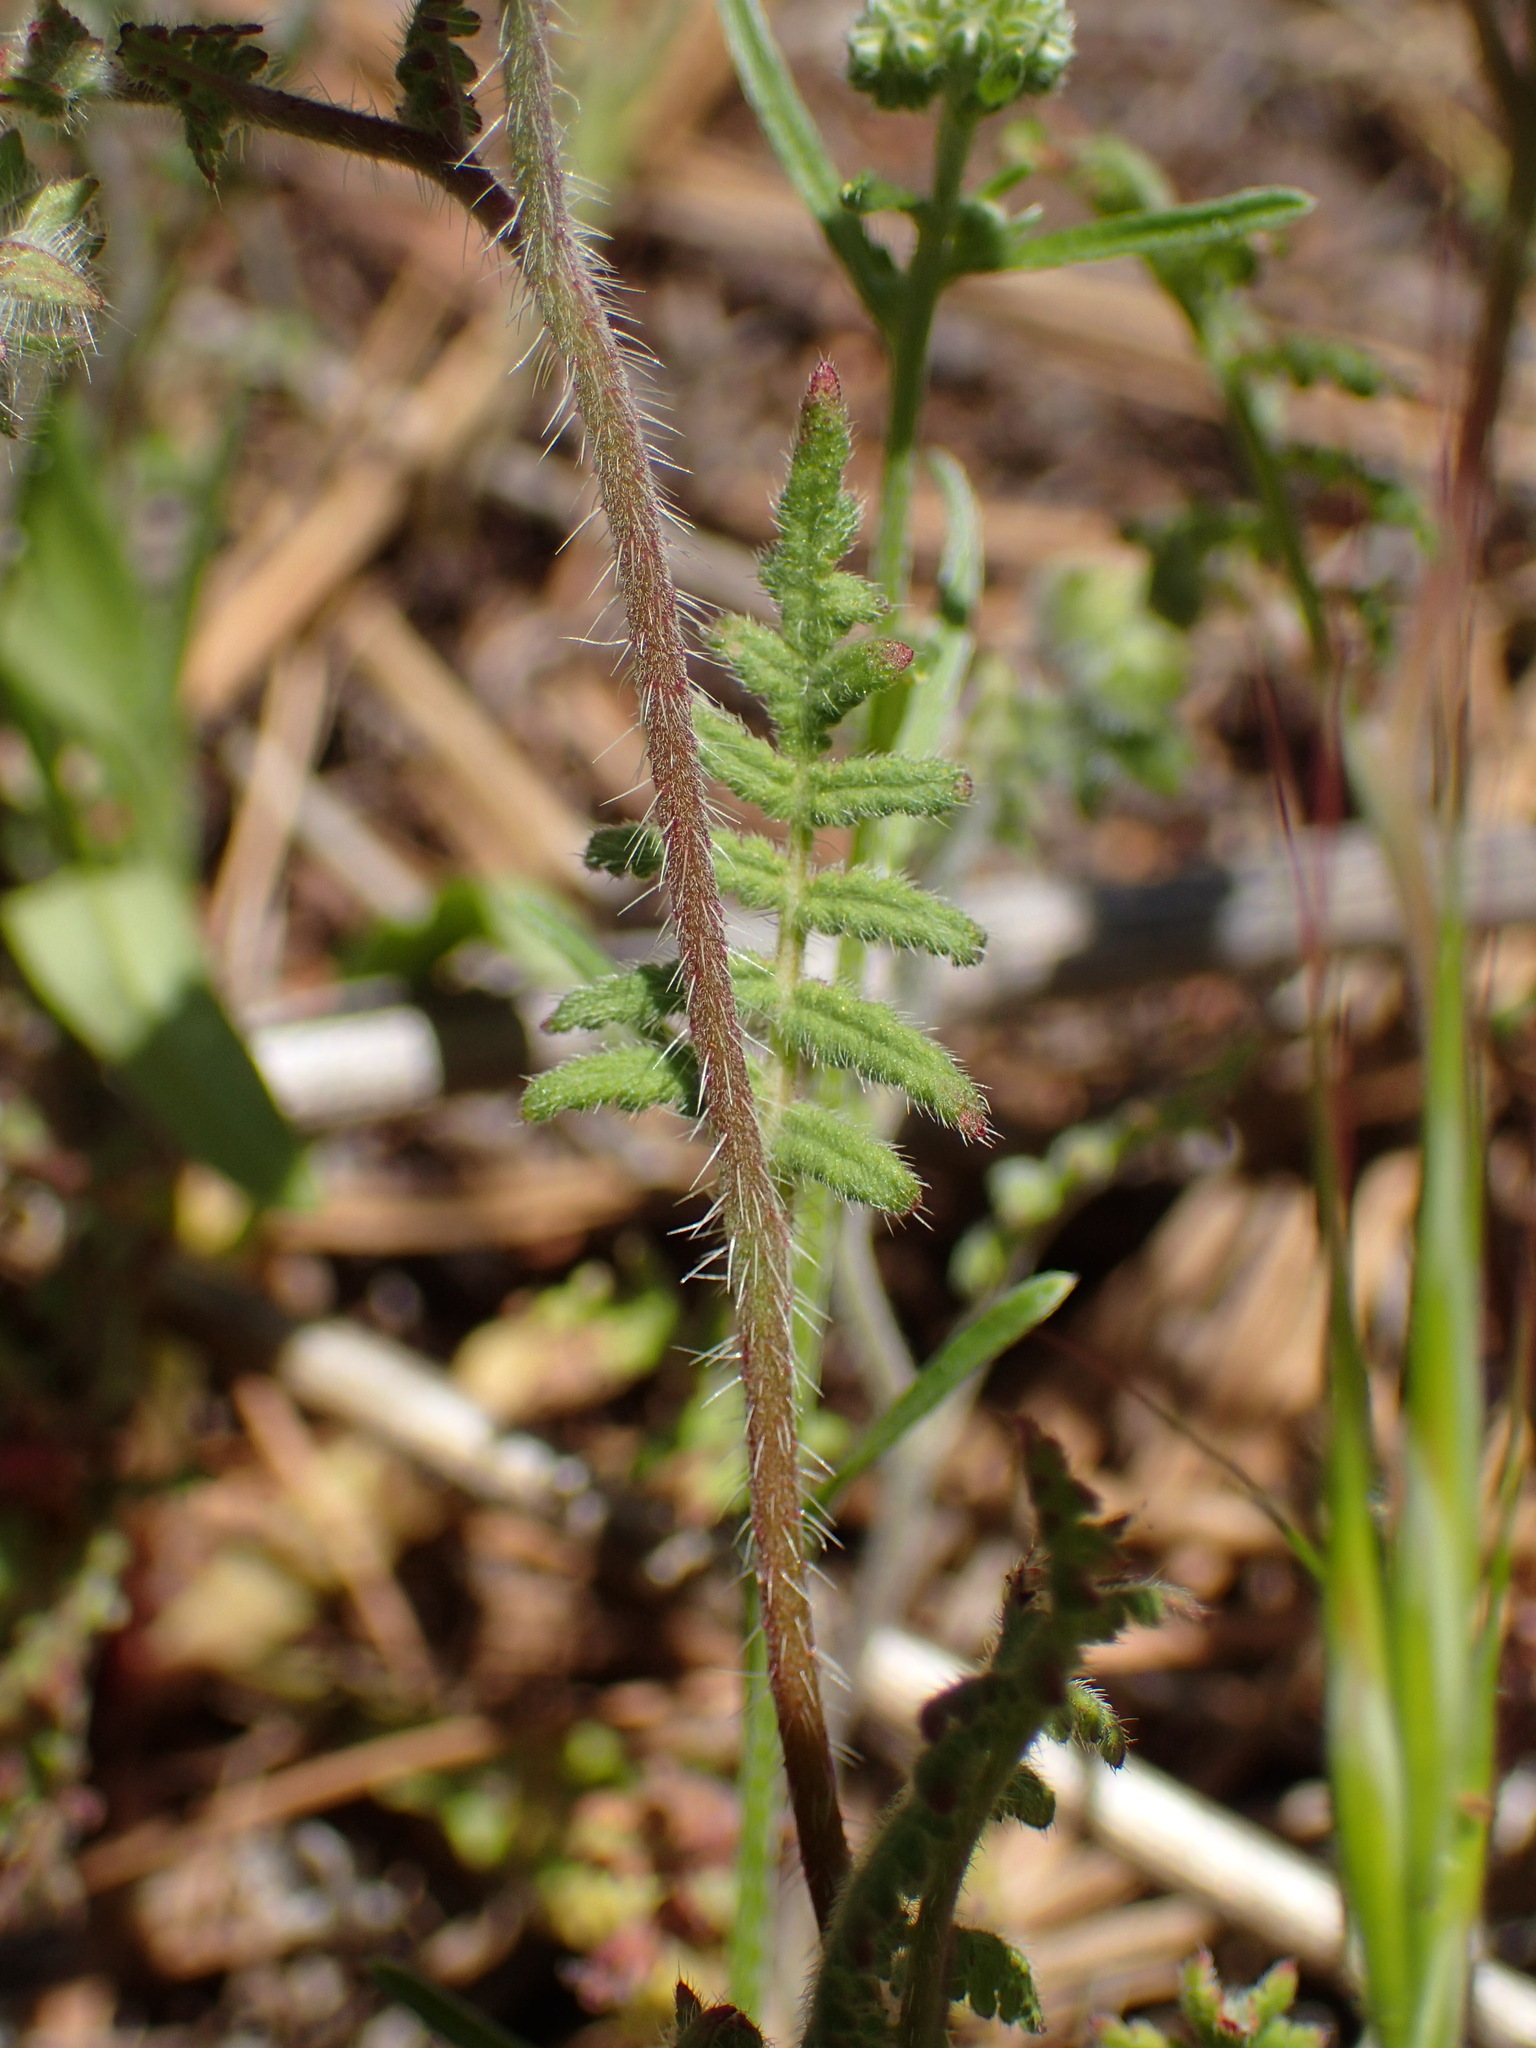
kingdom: Plantae
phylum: Tracheophyta
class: Magnoliopsida
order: Boraginales
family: Hydrophyllaceae
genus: Phacelia
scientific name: Phacelia distans
